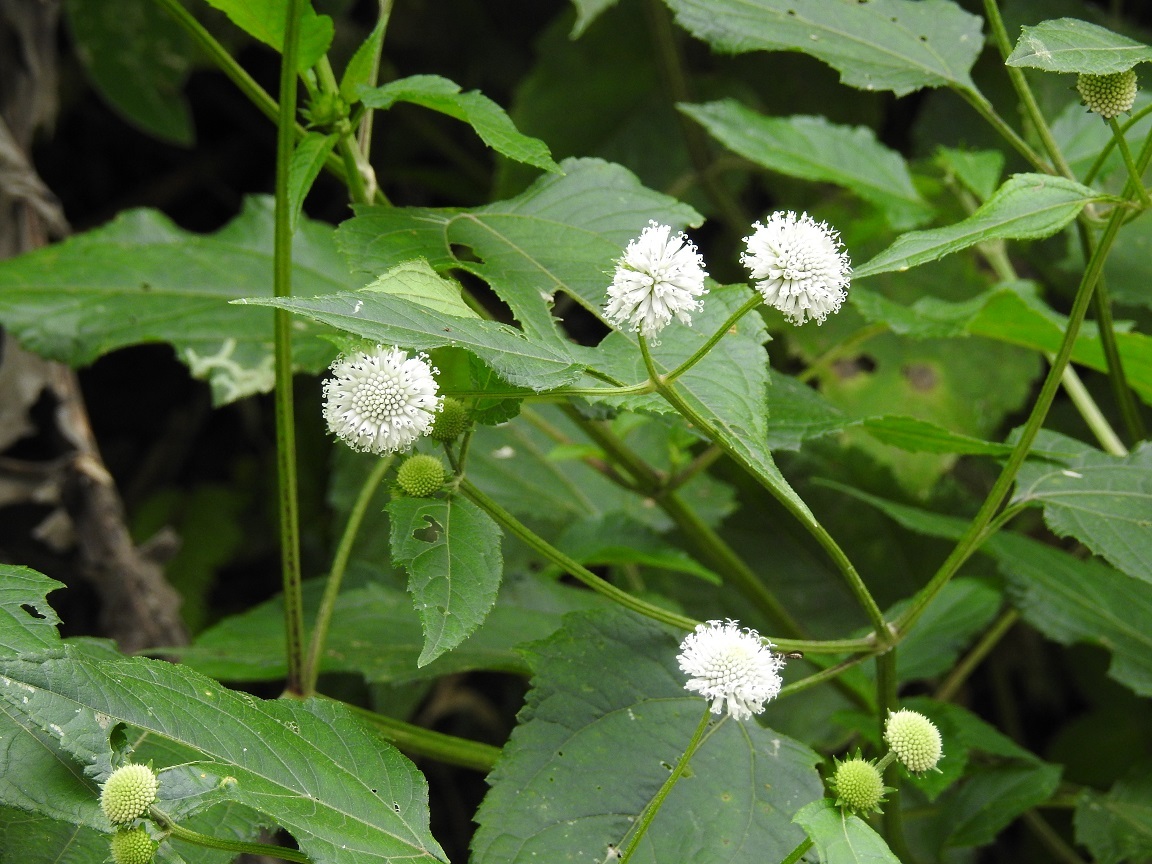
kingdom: Plantae
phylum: Tracheophyta
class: Magnoliopsida
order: Asterales
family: Asteraceae
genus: Melanthera
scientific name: Melanthera nivea
